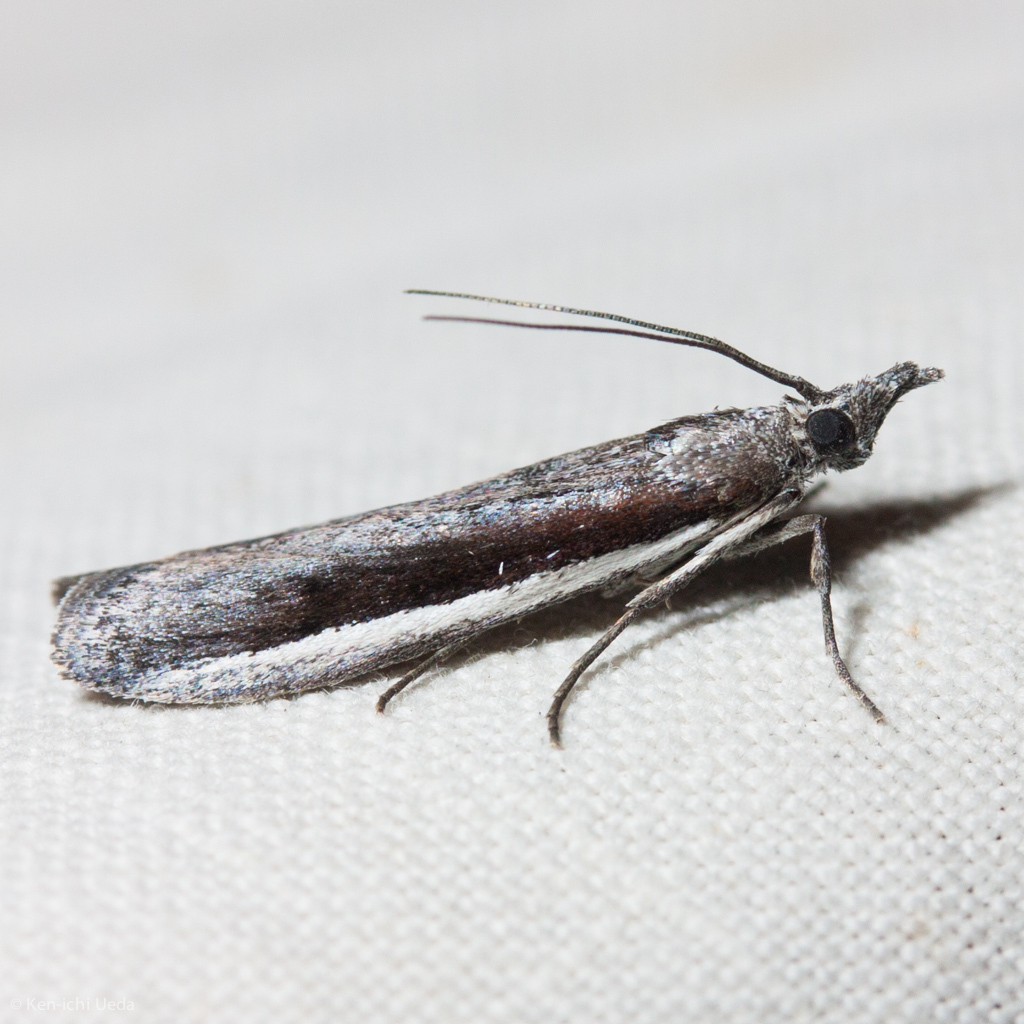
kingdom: Animalia
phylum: Arthropoda
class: Insecta
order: Lepidoptera
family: Pyralidae
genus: Pima
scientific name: Pima albocostalialis
